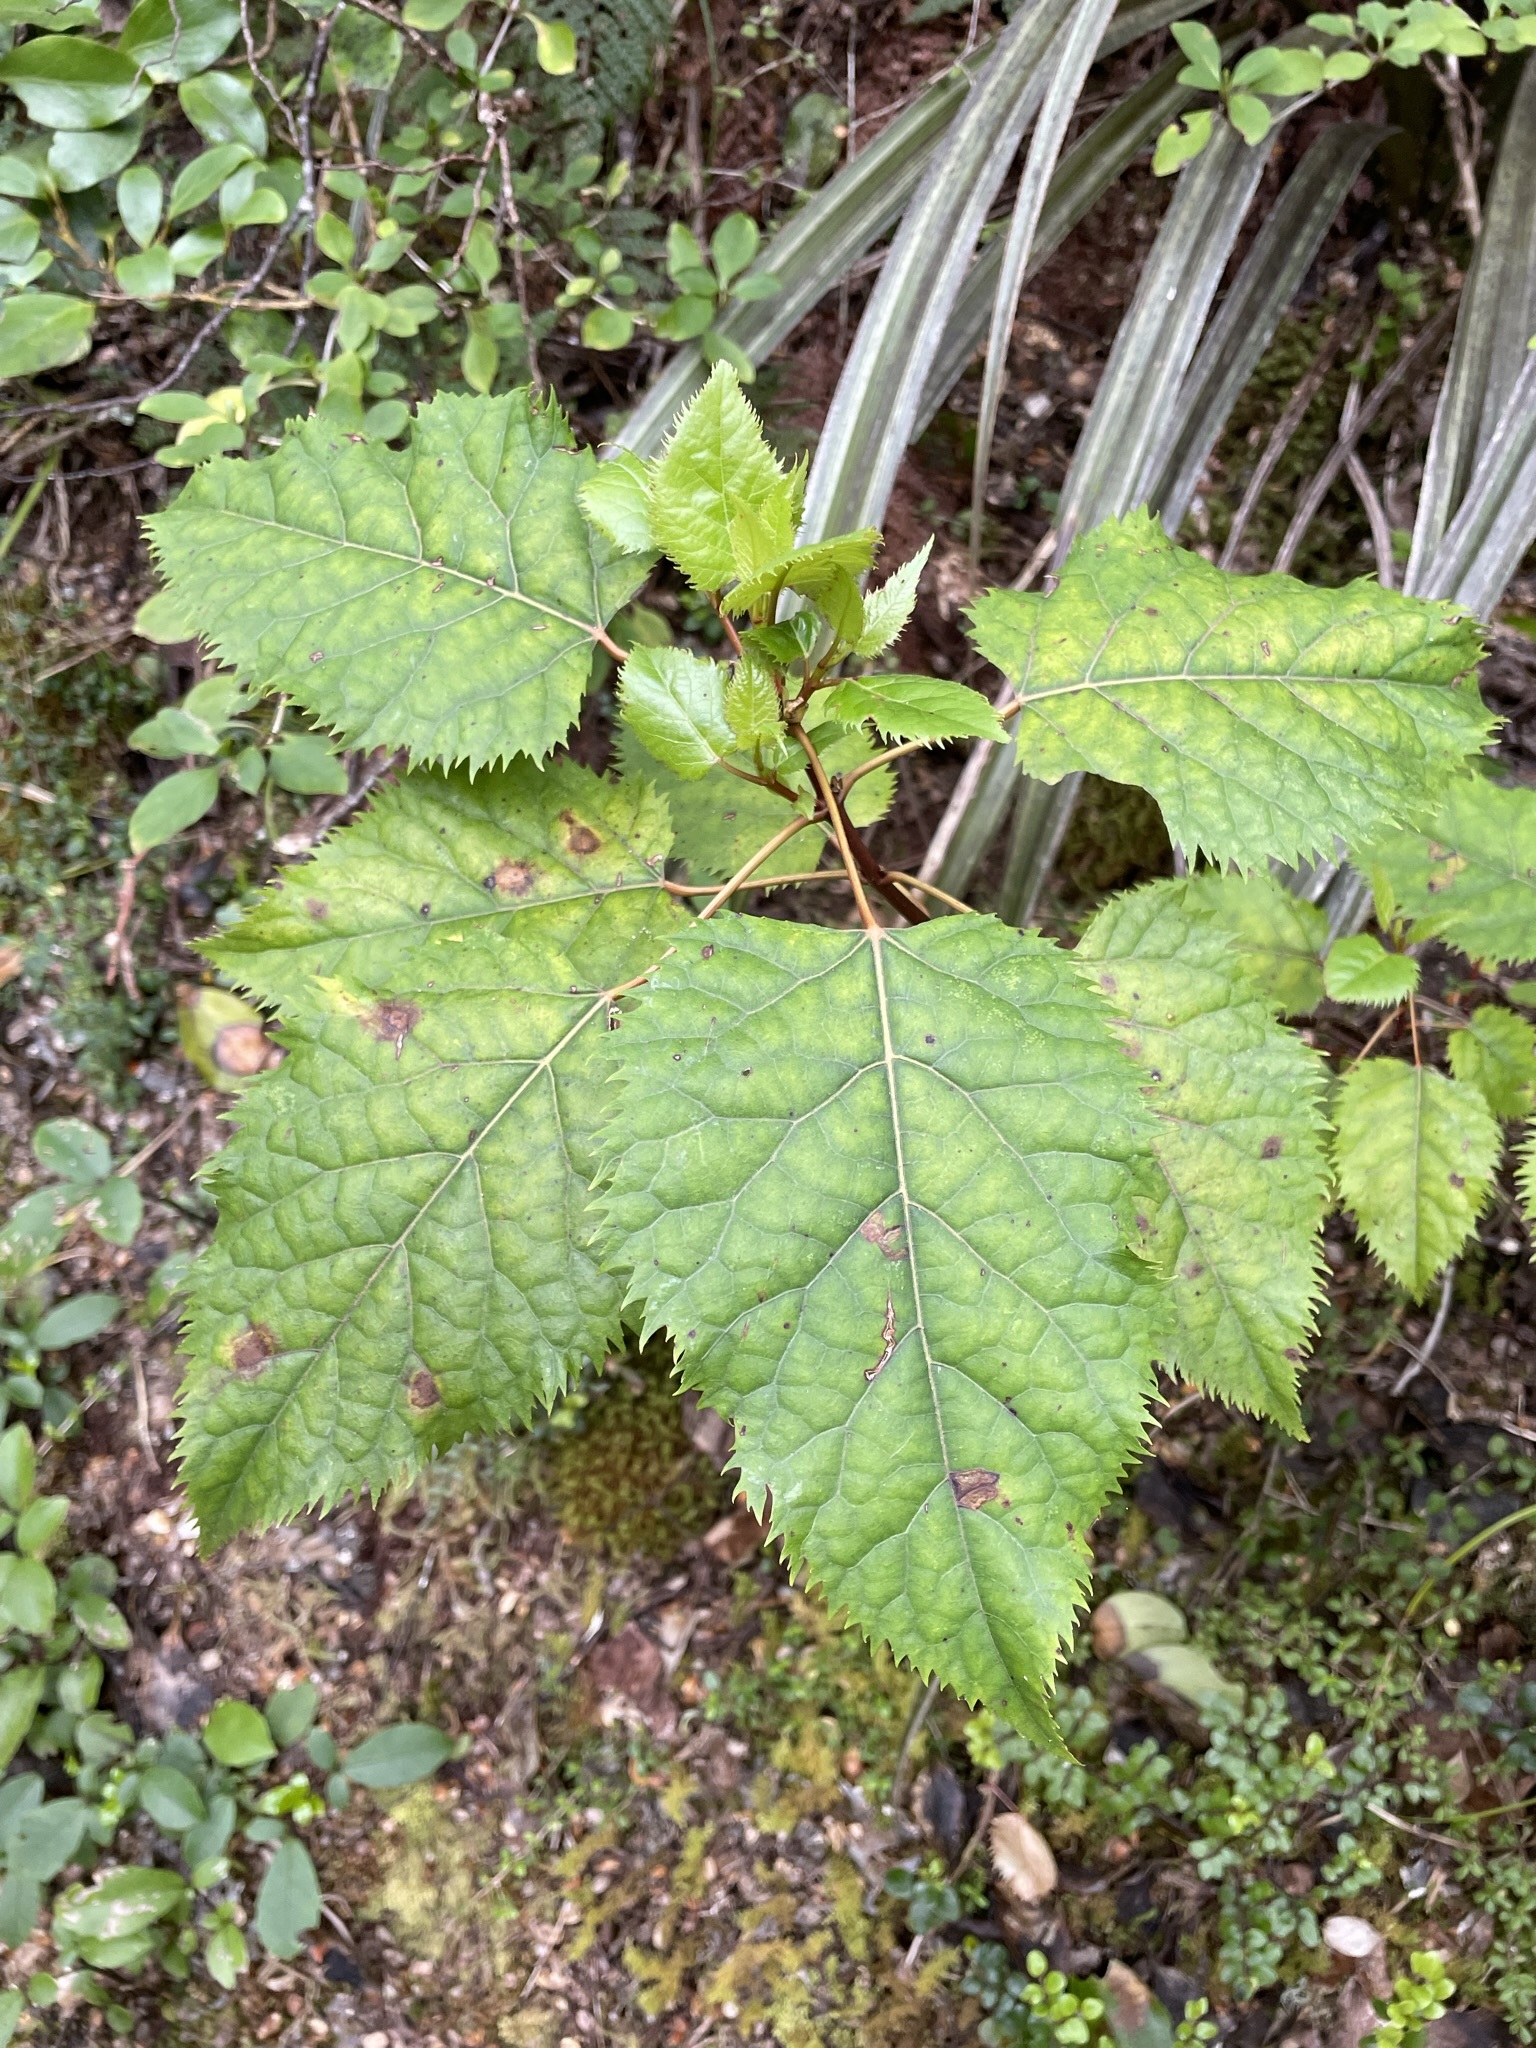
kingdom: Plantae
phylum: Tracheophyta
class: Magnoliopsida
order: Oxalidales
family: Elaeocarpaceae
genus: Aristotelia
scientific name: Aristotelia serrata
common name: New zealand wineberry
